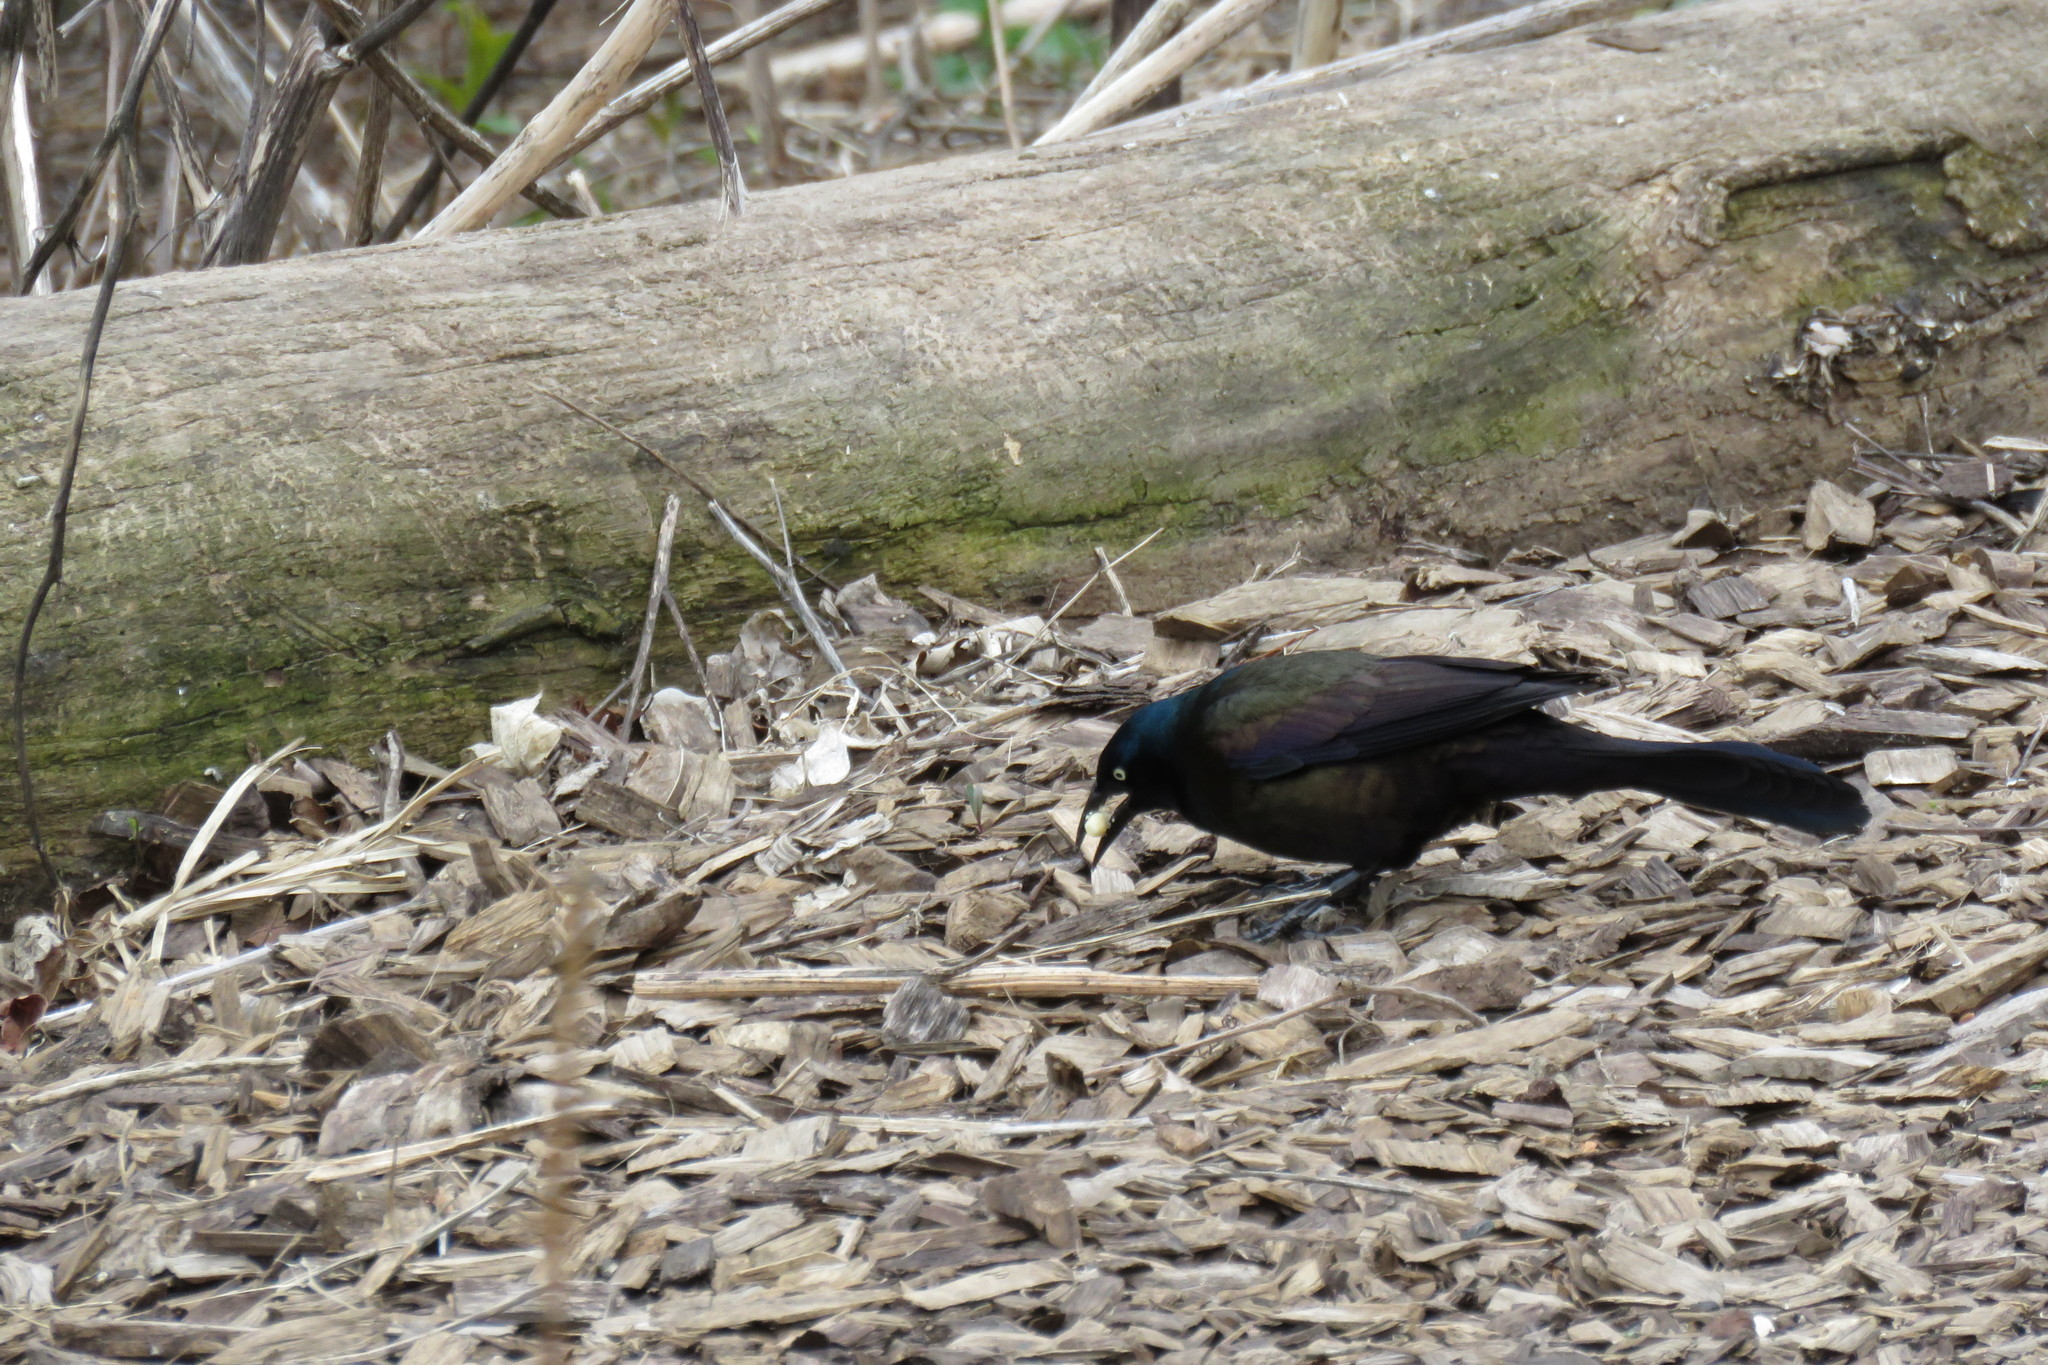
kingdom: Animalia
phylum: Chordata
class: Aves
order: Passeriformes
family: Icteridae
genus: Quiscalus
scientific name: Quiscalus quiscula
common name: Common grackle
